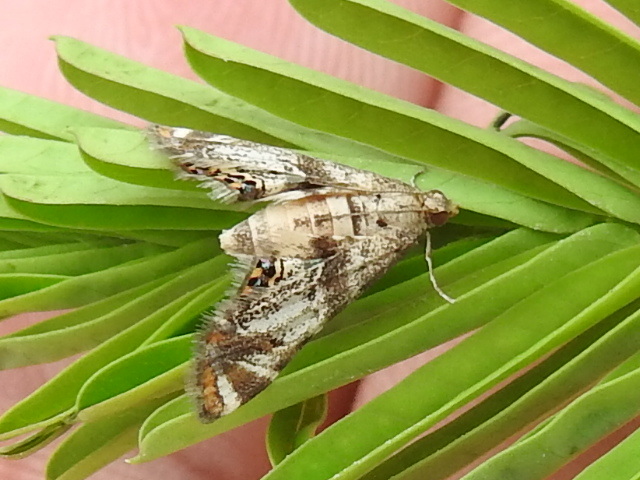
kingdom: Animalia
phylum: Arthropoda
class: Insecta
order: Lepidoptera
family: Crambidae
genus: Petrophila
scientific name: Petrophila jaliscalis
